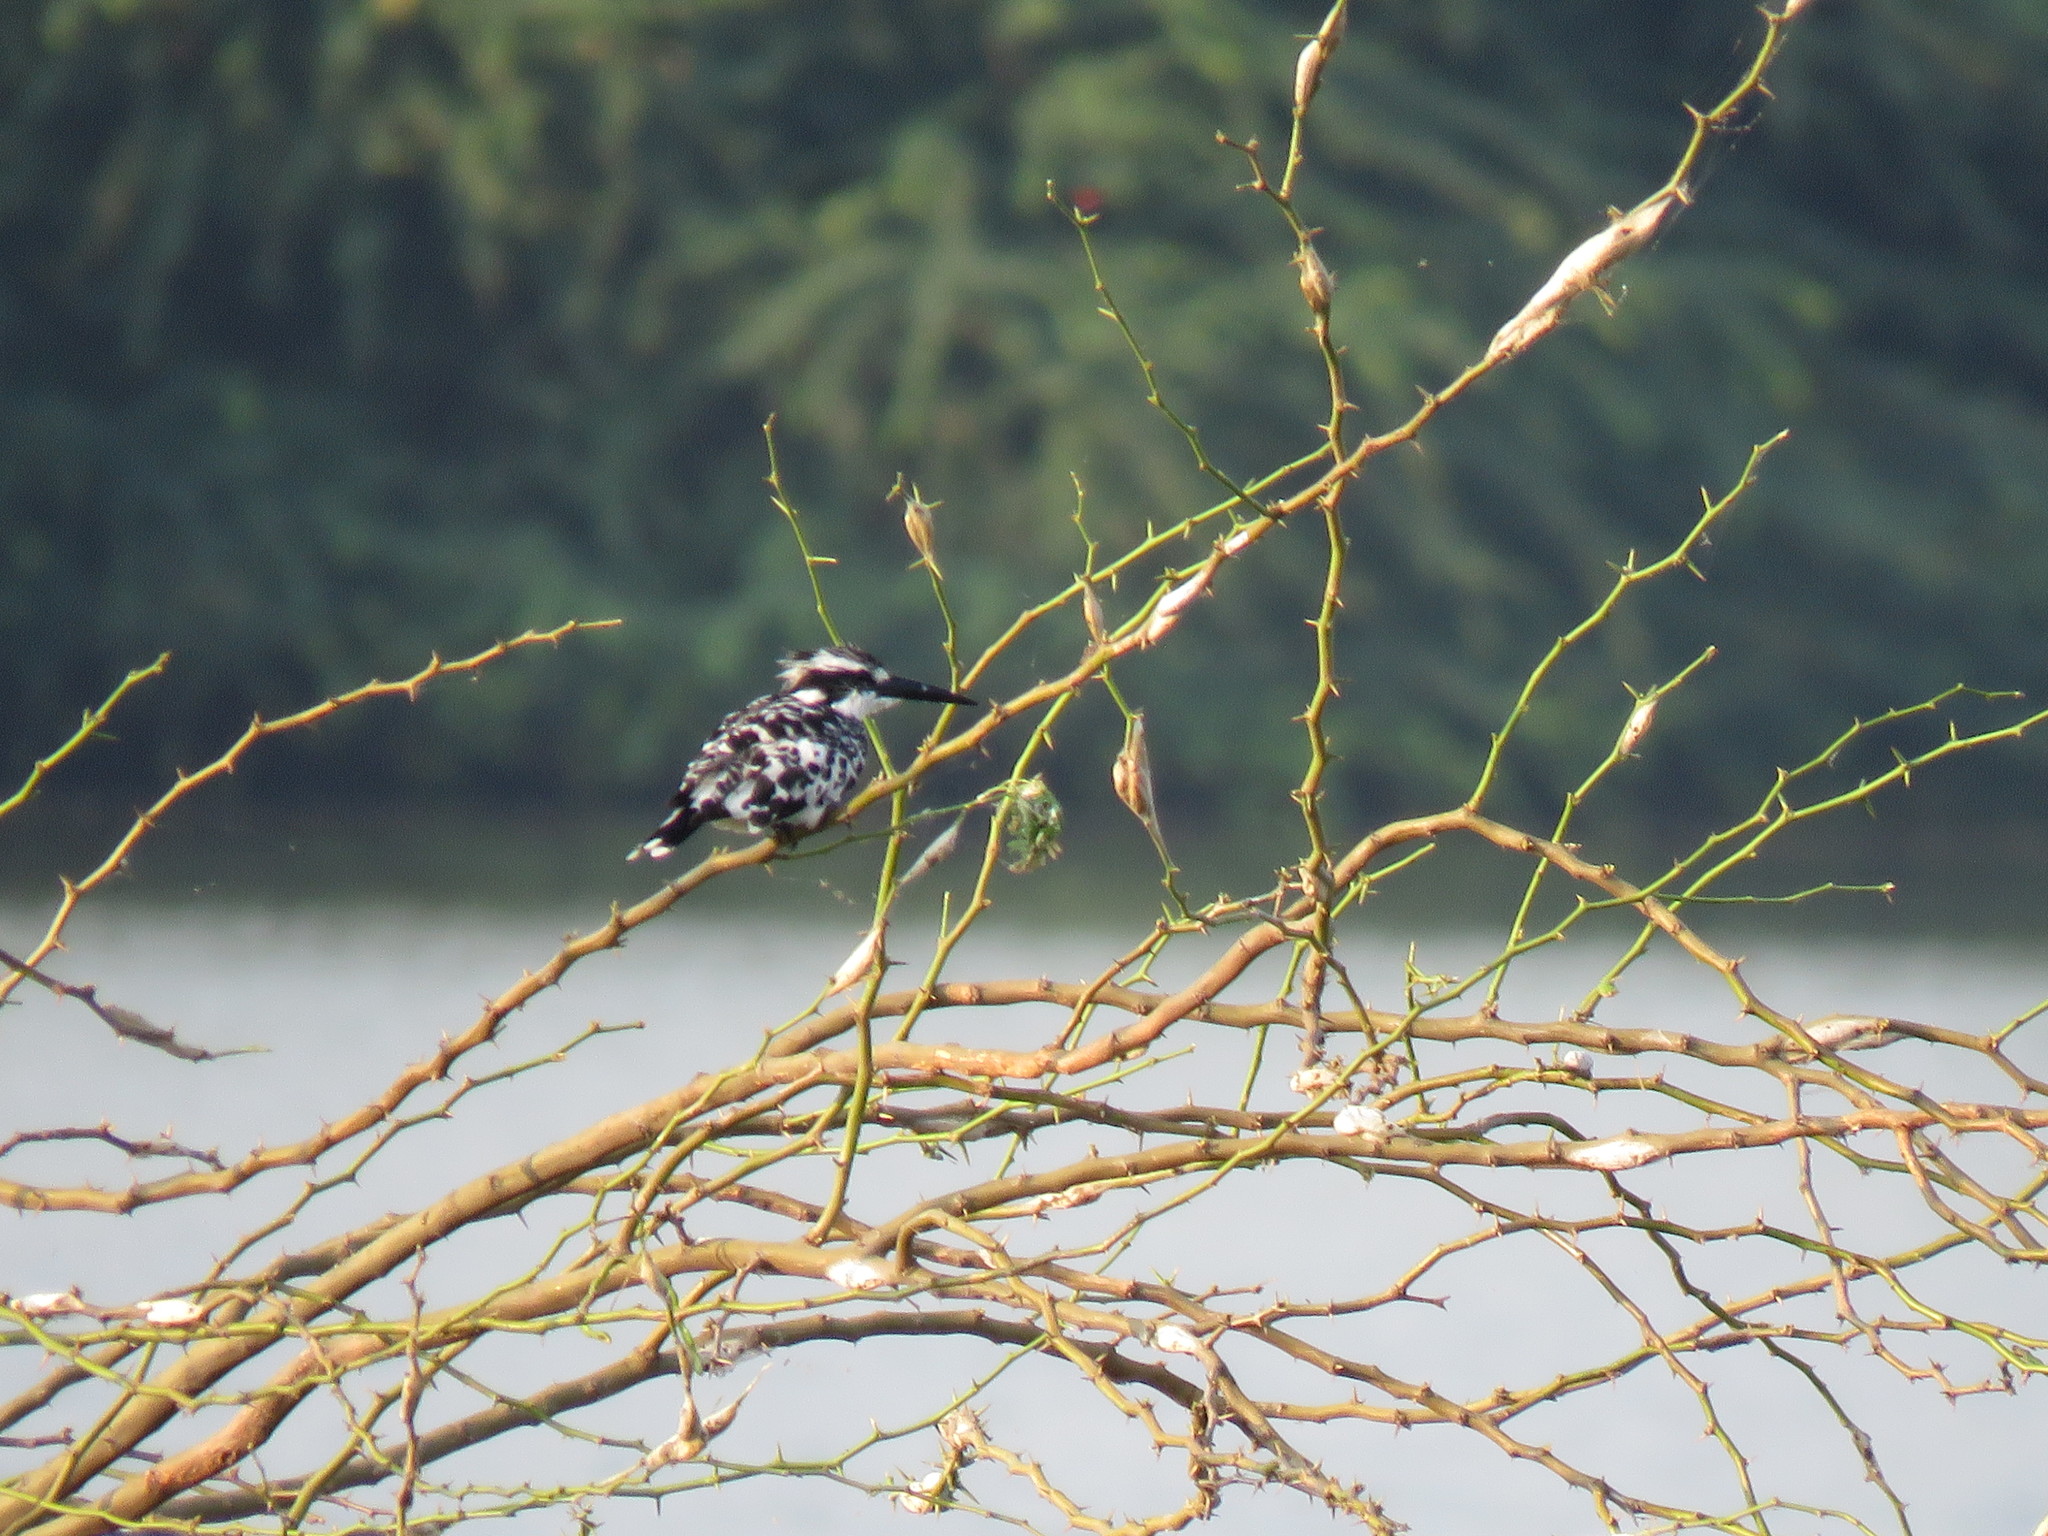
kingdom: Animalia
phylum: Chordata
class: Aves
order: Coraciiformes
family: Alcedinidae
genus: Ceryle
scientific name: Ceryle rudis
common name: Pied kingfisher
